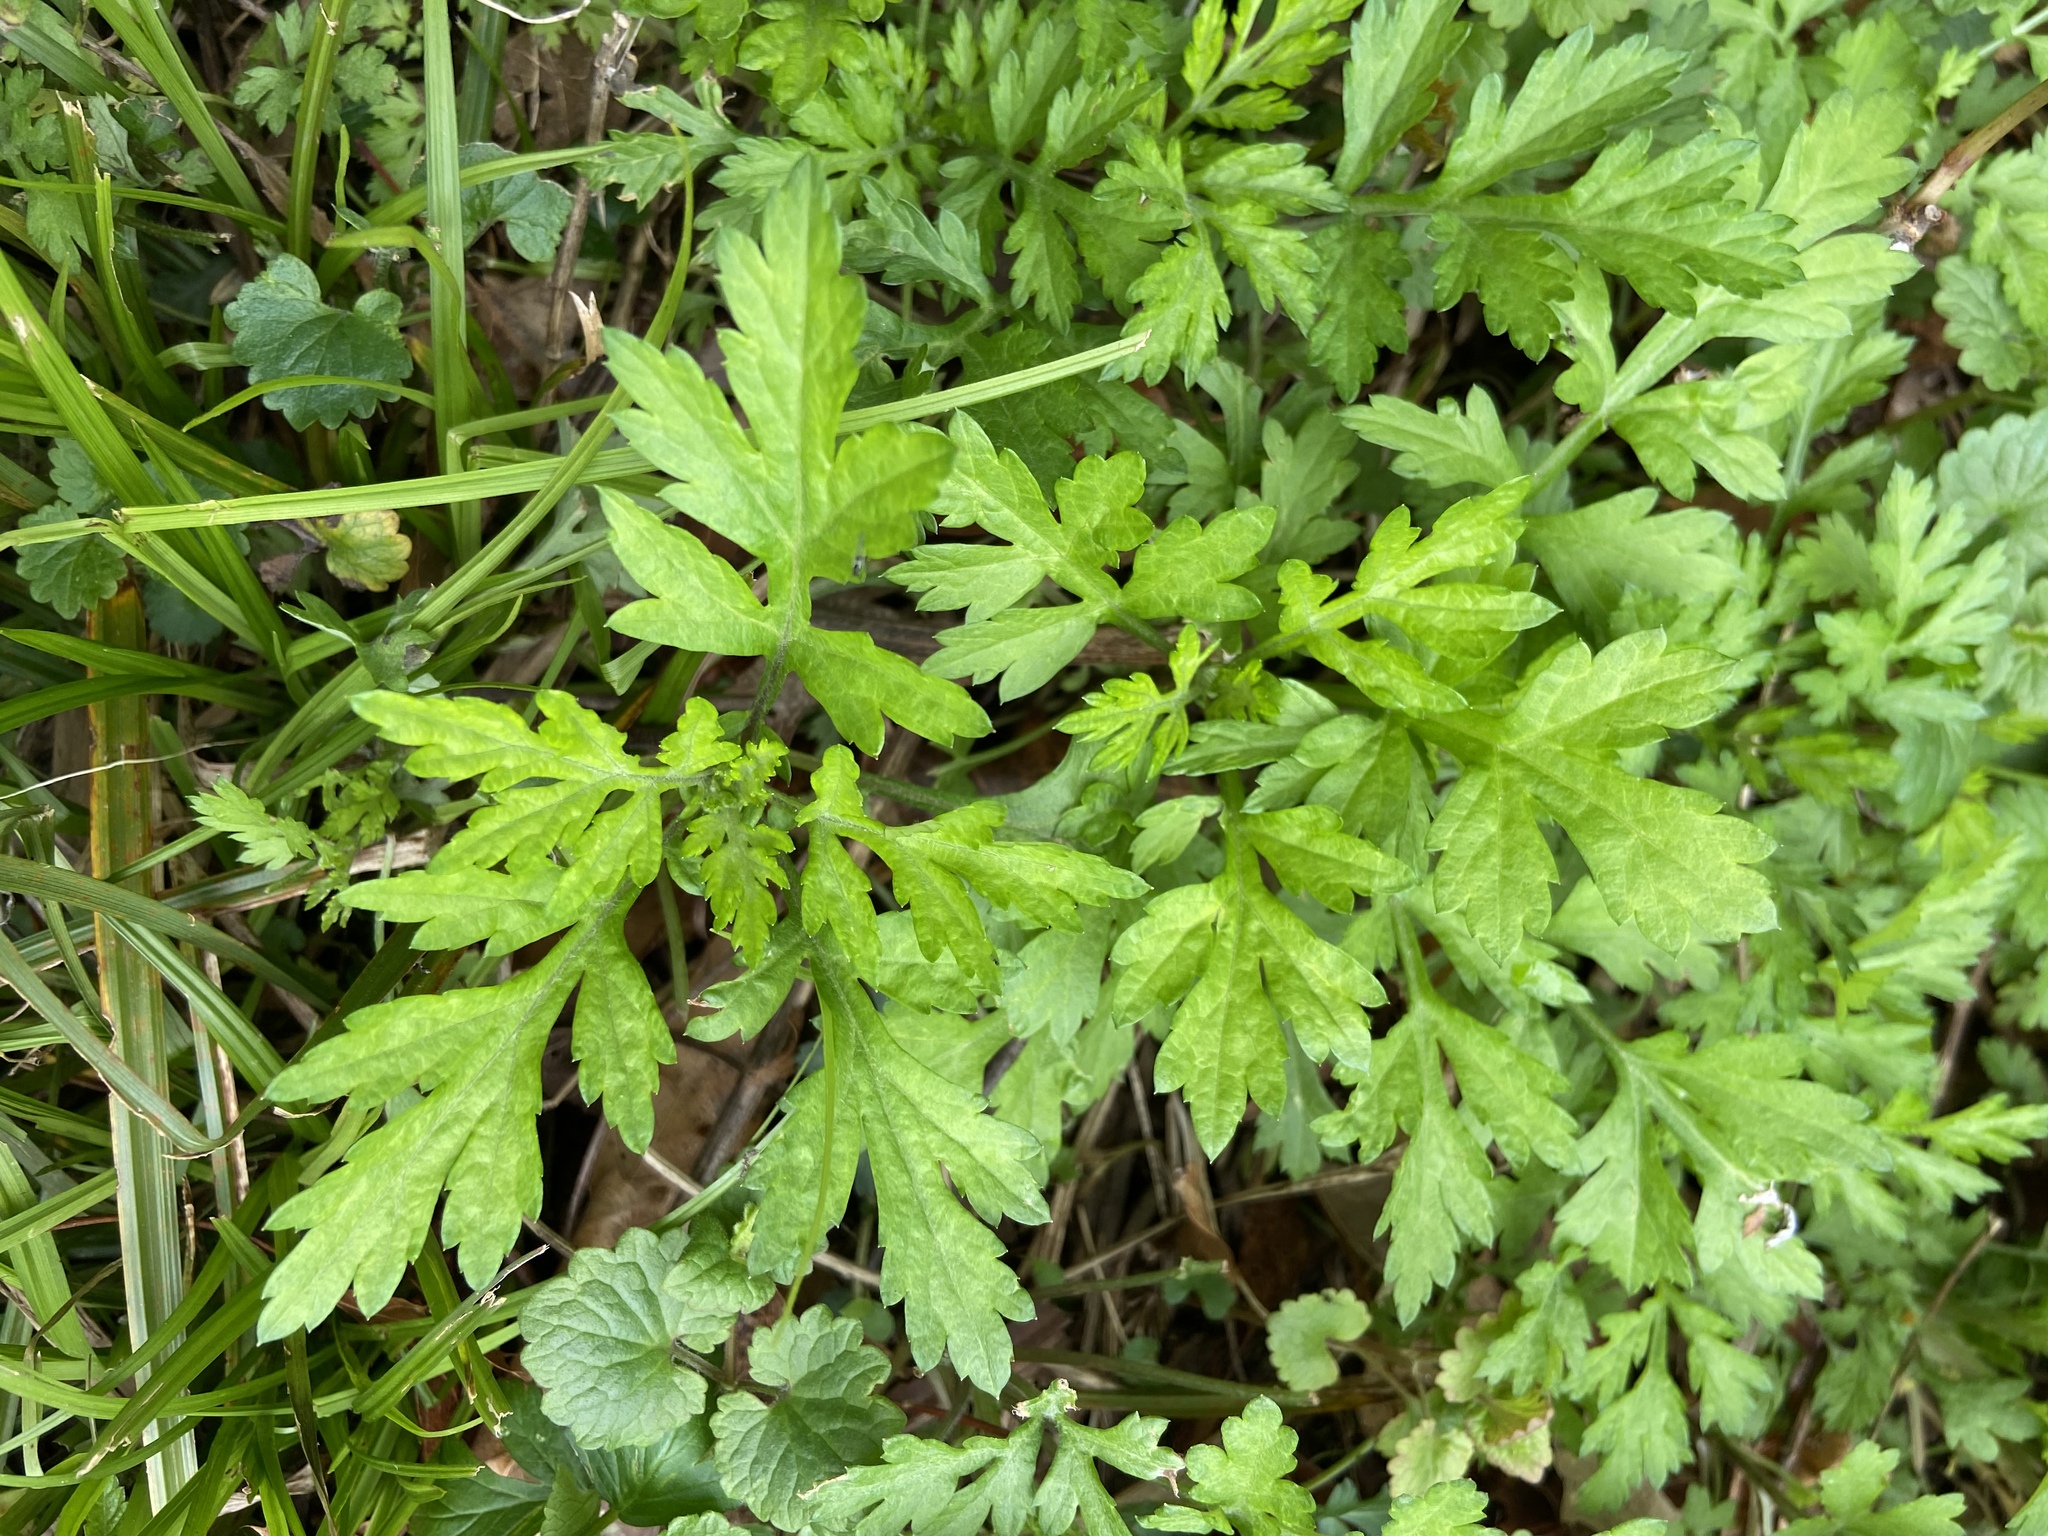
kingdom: Plantae
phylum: Tracheophyta
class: Magnoliopsida
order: Asterales
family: Asteraceae
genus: Artemisia
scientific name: Artemisia vulgaris
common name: Mugwort
